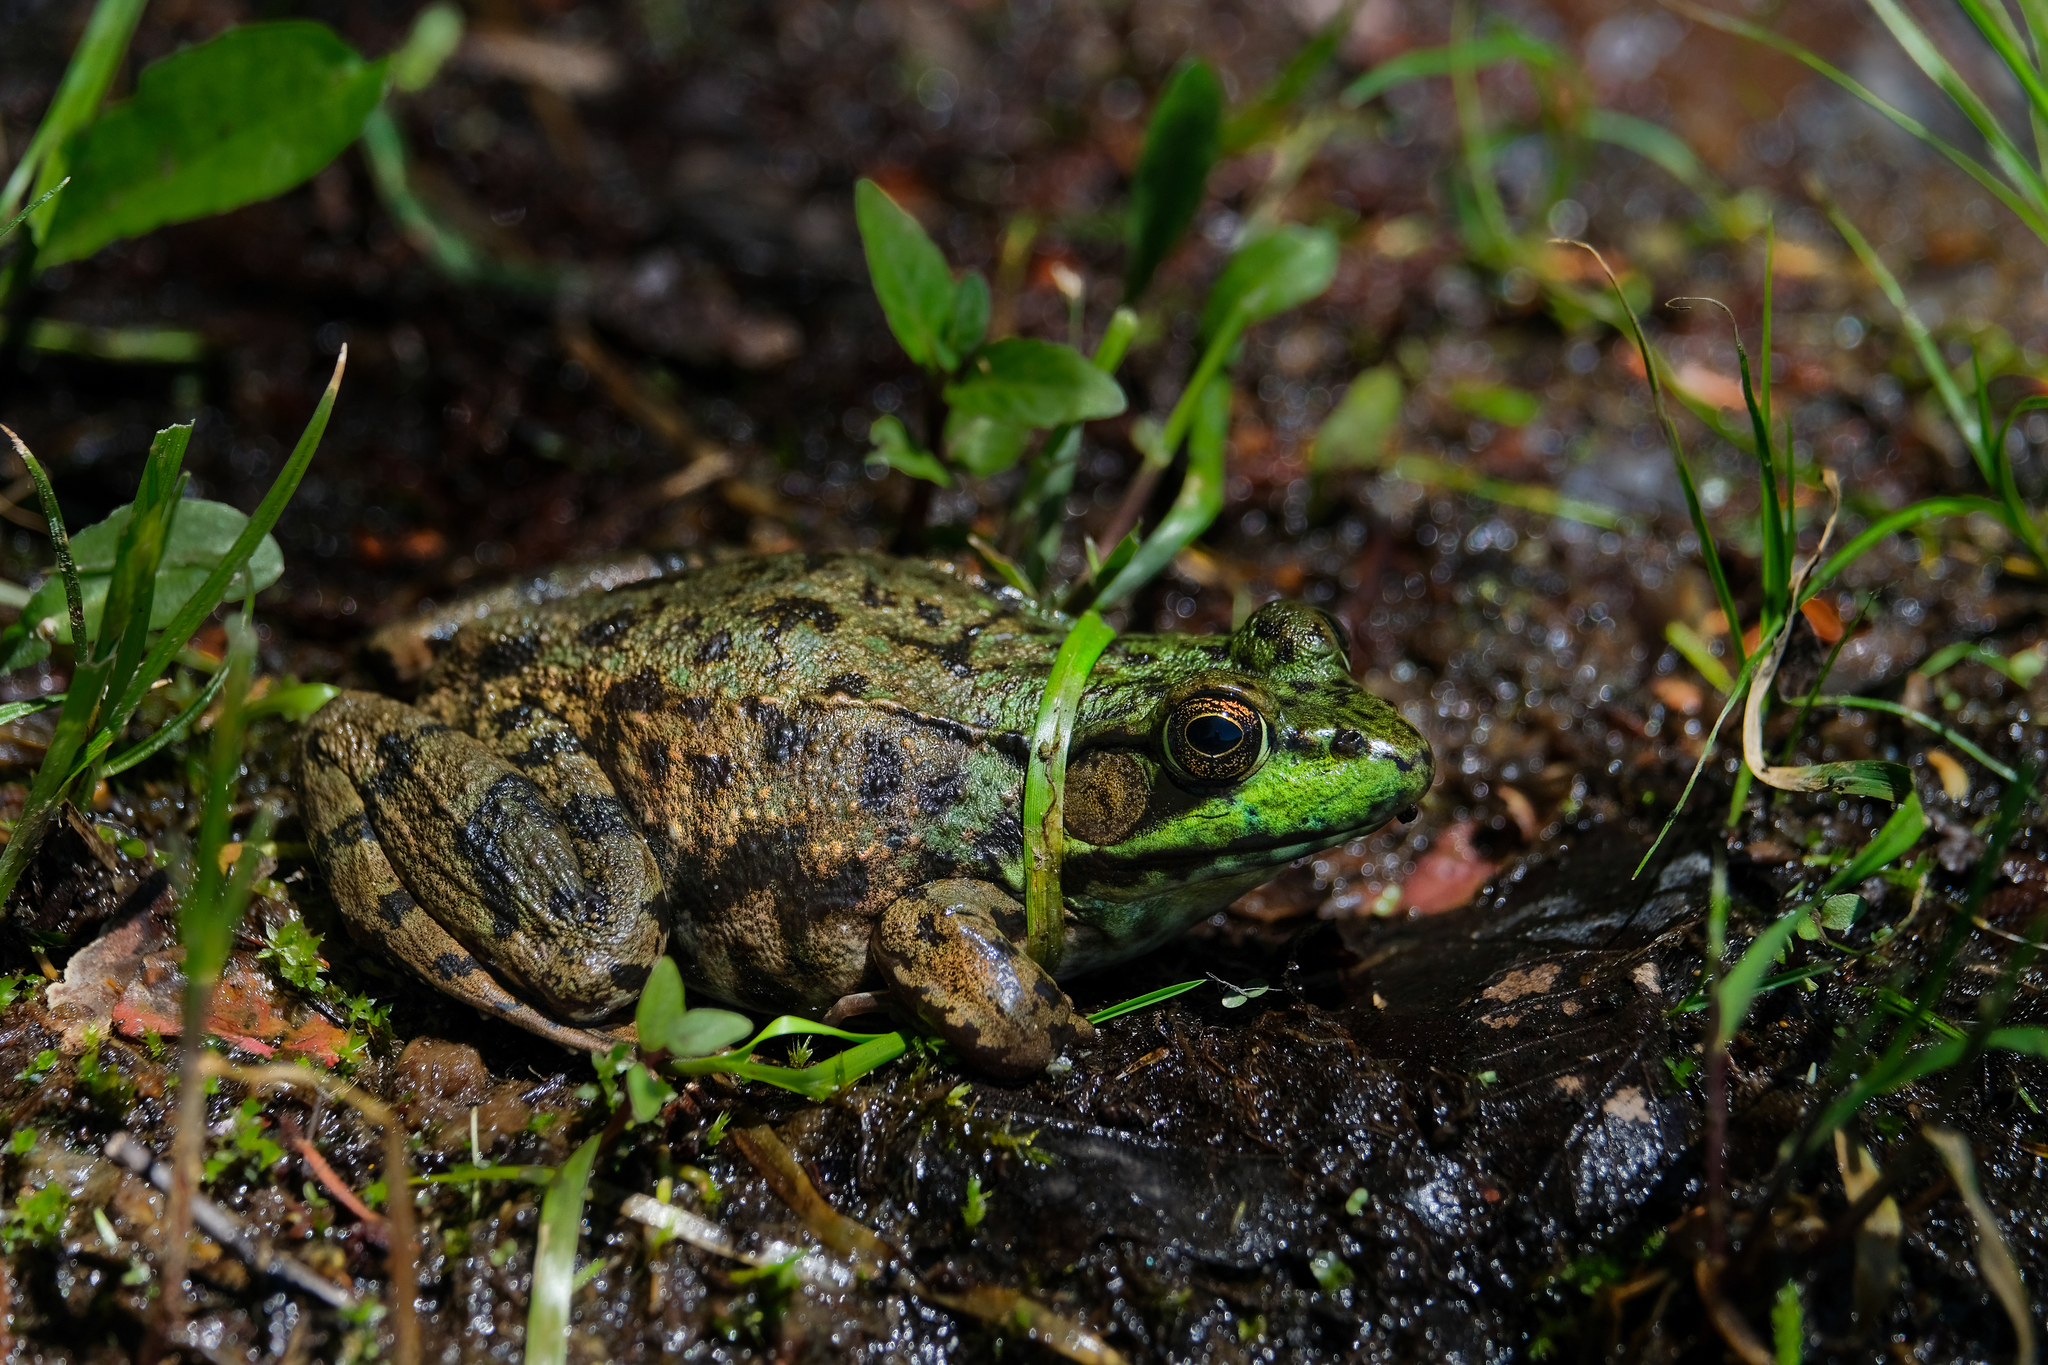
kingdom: Animalia
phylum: Chordata
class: Amphibia
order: Anura
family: Ranidae
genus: Lithobates
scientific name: Lithobates clamitans
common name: Green frog
